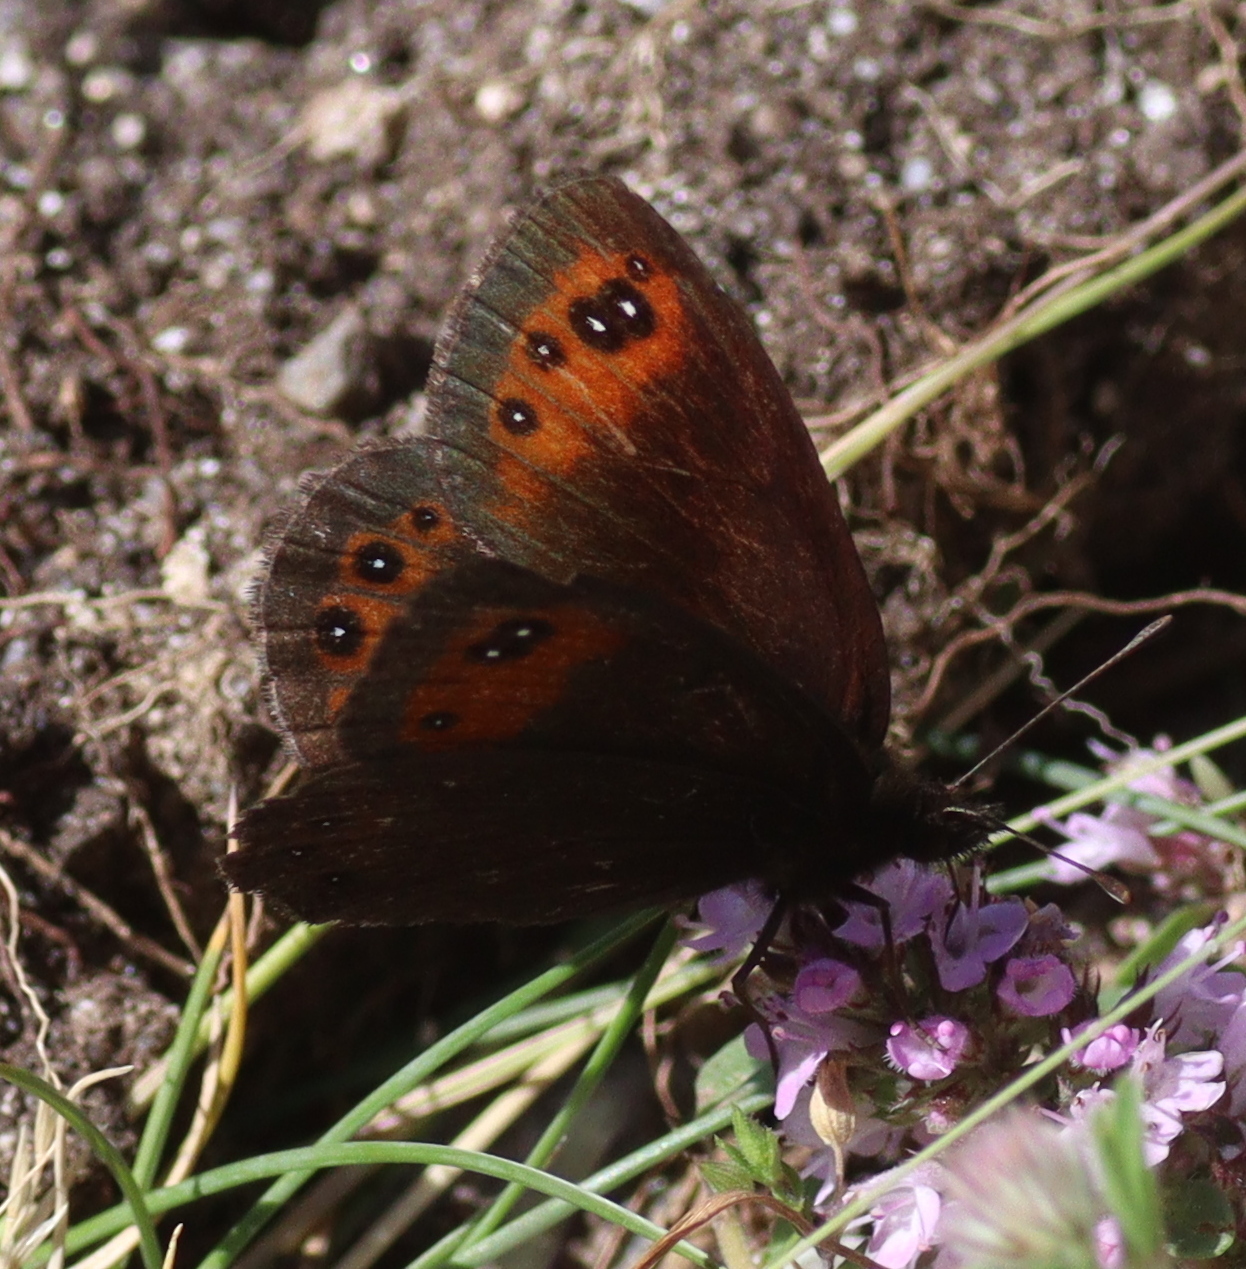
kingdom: Animalia
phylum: Arthropoda
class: Insecta
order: Lepidoptera
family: Nymphalidae
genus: Erebia
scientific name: Erebia meolans
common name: Piedmont ringlet
